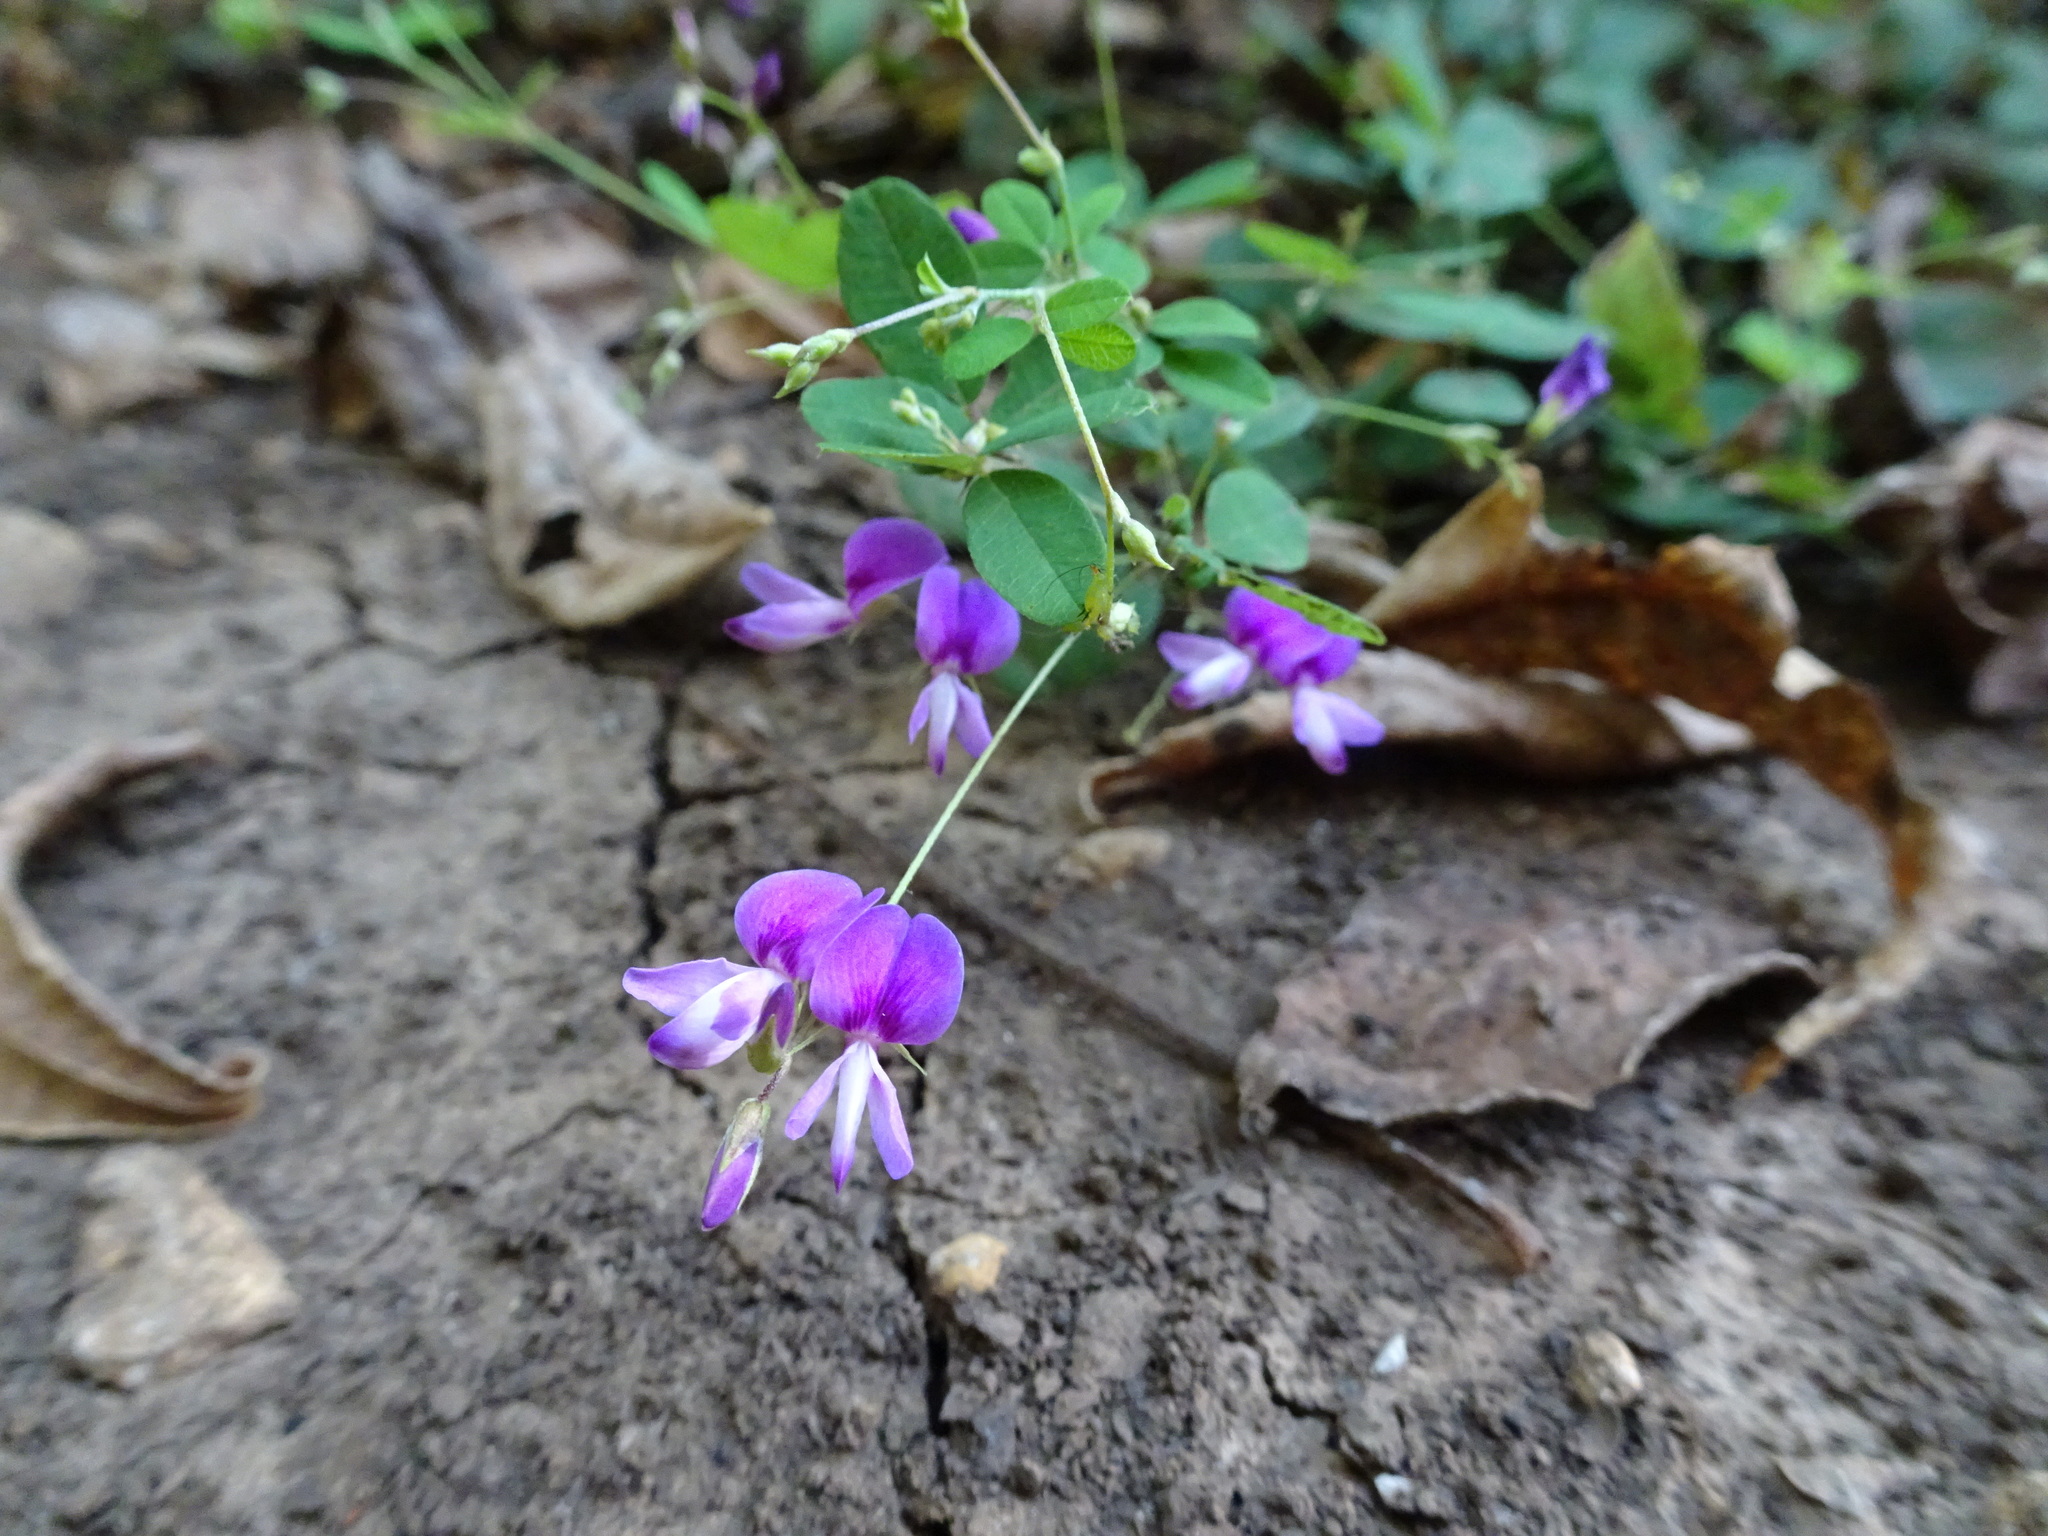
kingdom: Plantae
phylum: Tracheophyta
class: Magnoliopsida
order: Fabales
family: Fabaceae
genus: Lespedeza
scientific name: Lespedeza
